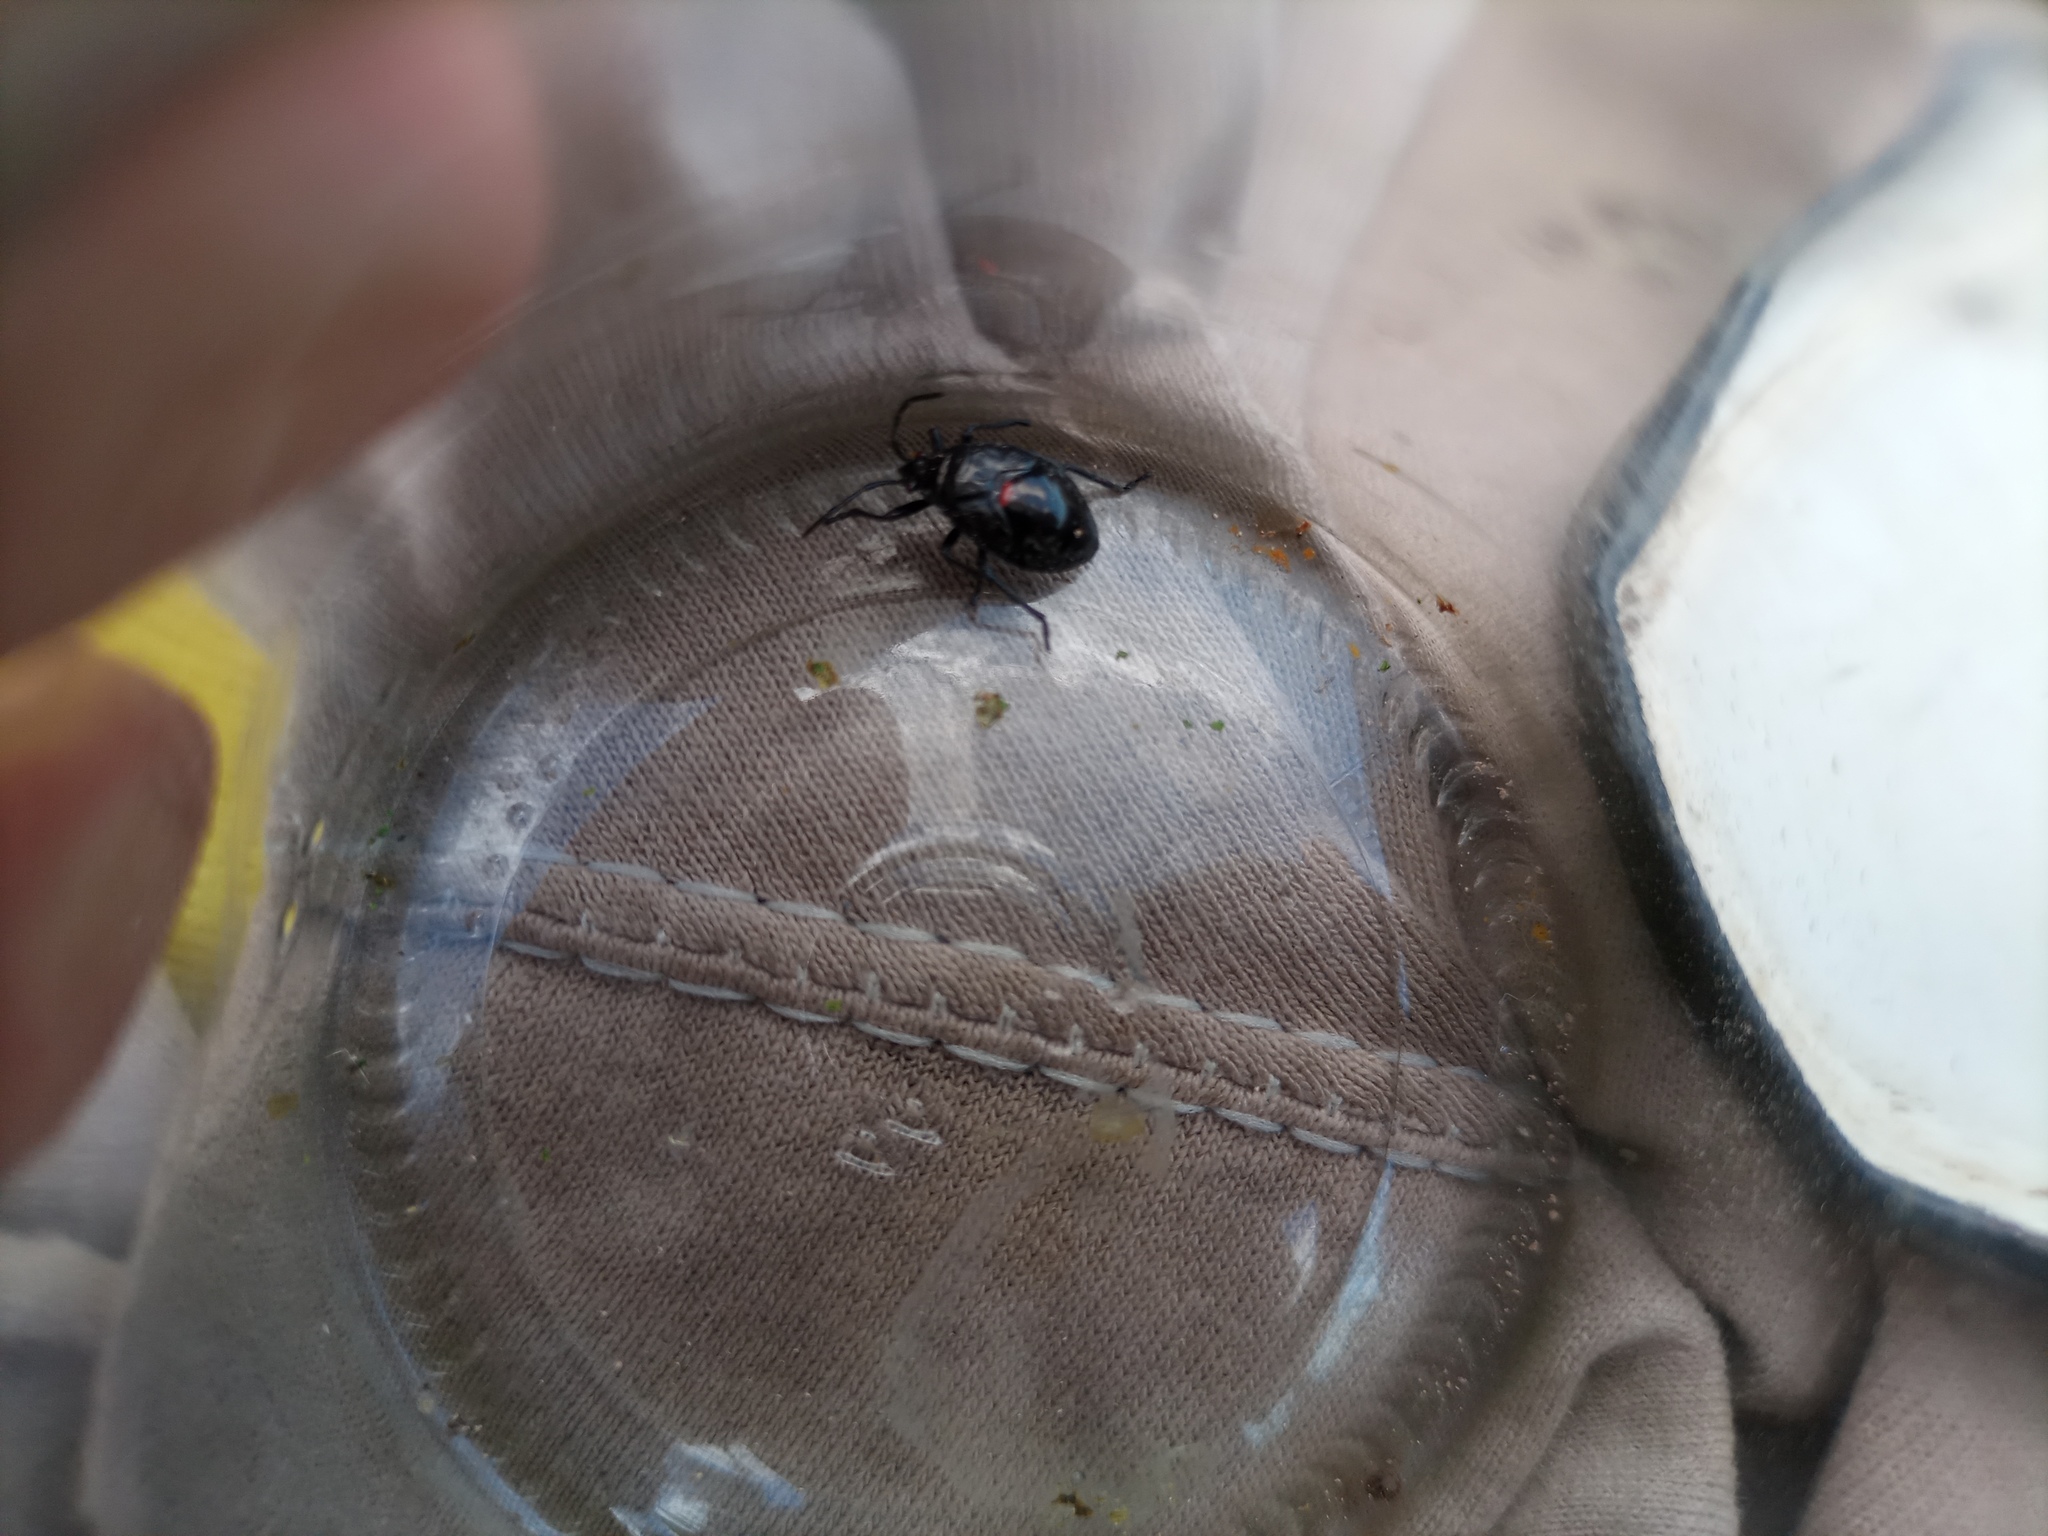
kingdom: Animalia
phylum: Arthropoda
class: Insecta
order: Hemiptera
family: Largidae
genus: Largus
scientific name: Largus rufipennis
